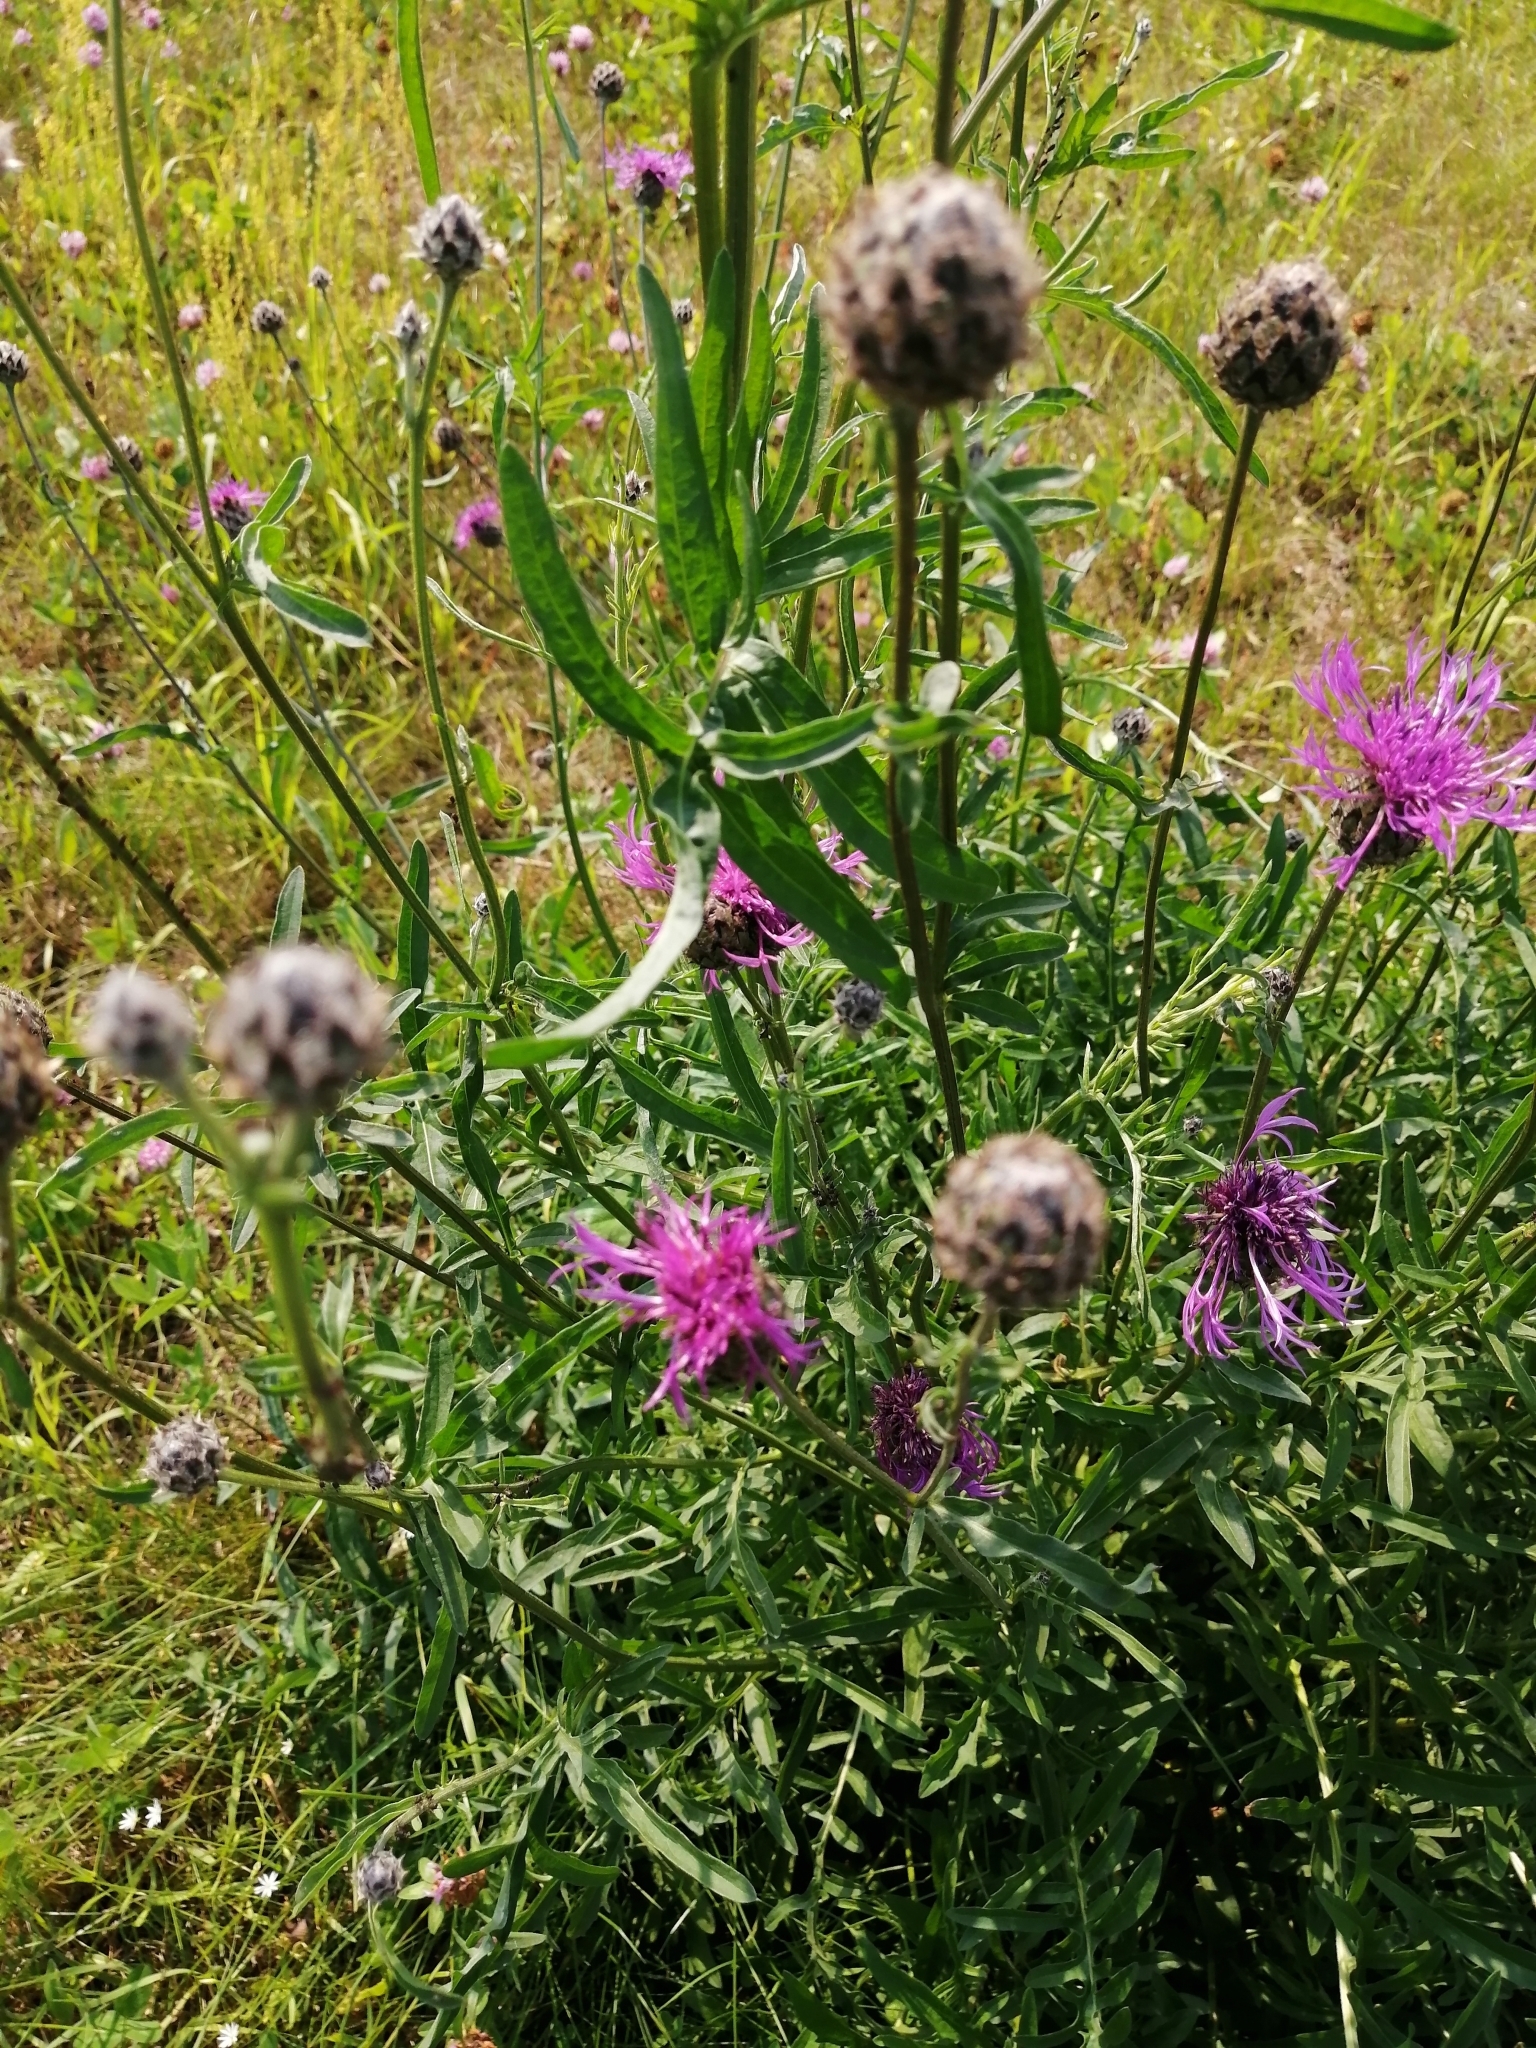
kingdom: Plantae
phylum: Tracheophyta
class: Magnoliopsida
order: Asterales
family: Asteraceae
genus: Centaurea
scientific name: Centaurea scabiosa
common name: Greater knapweed
